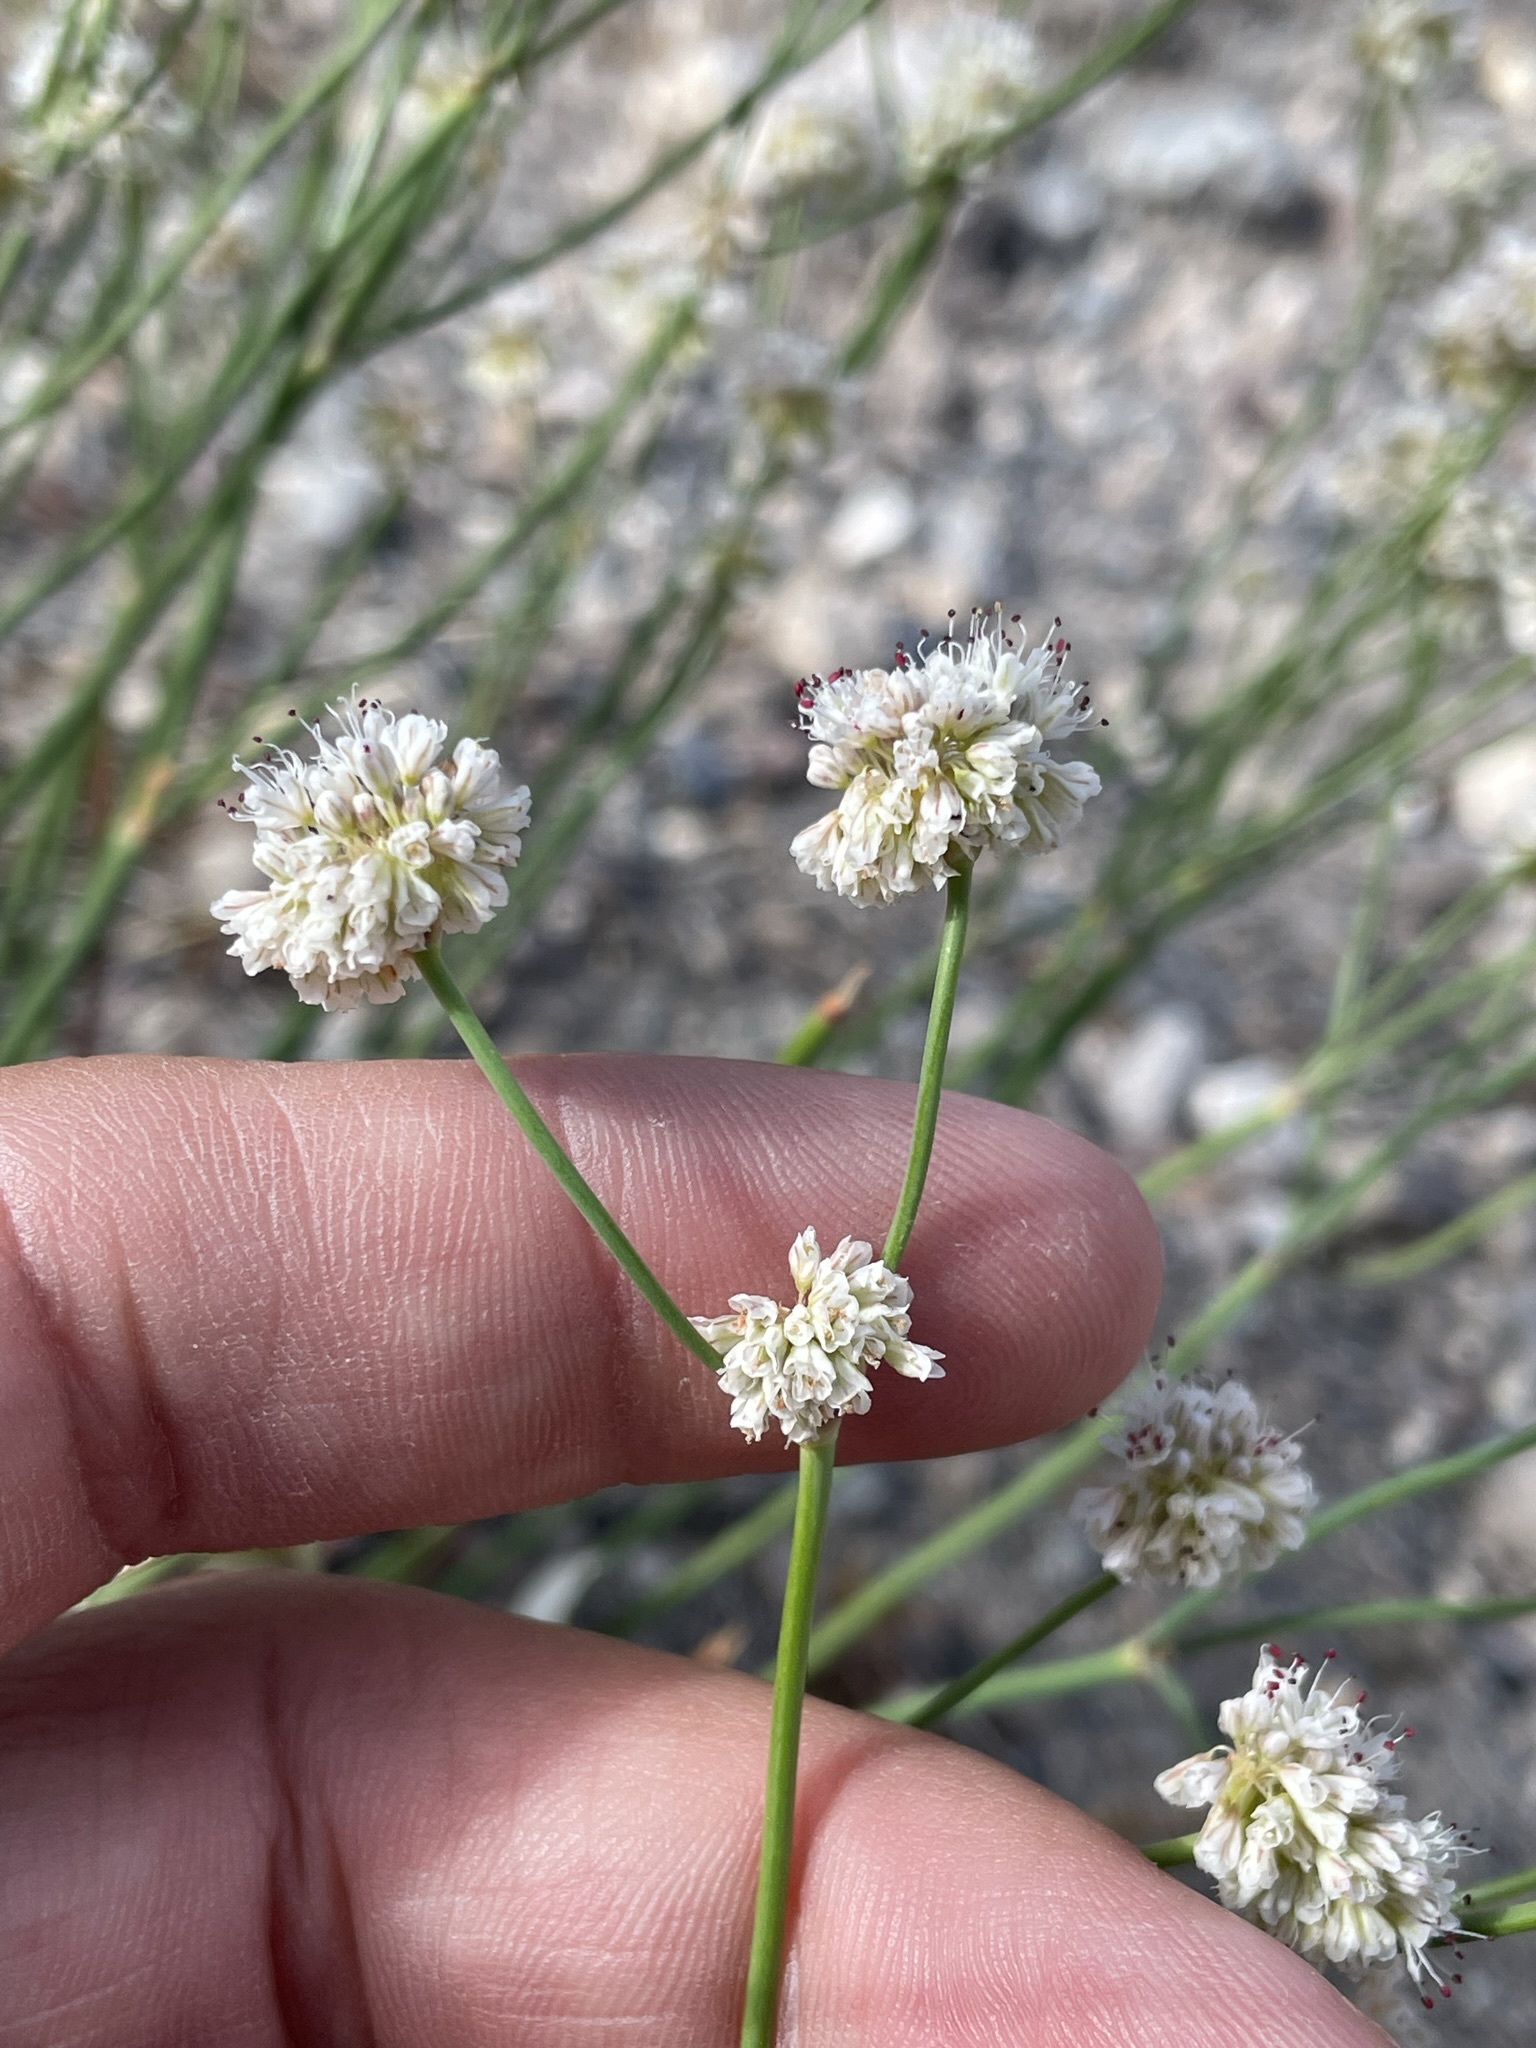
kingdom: Plantae
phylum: Tracheophyta
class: Magnoliopsida
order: Caryophyllales
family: Polygonaceae
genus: Eriogonum
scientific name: Eriogonum nudum
